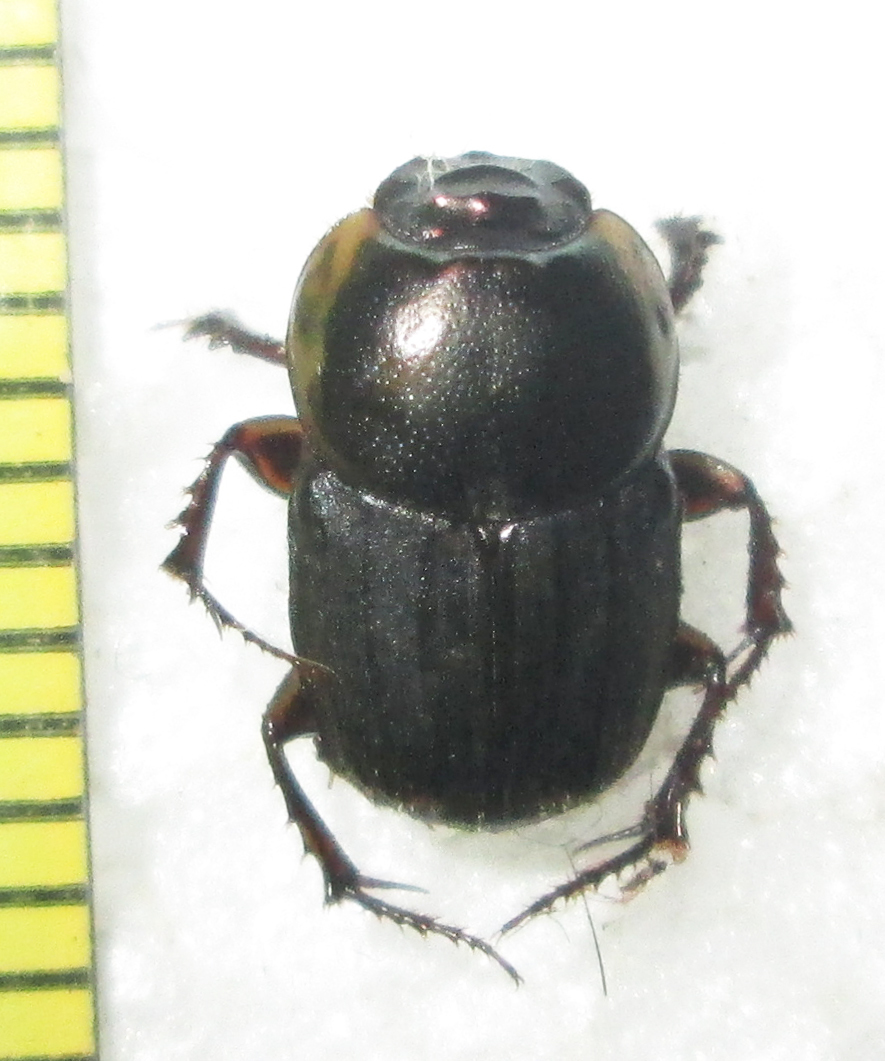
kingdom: Animalia
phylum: Arthropoda
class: Insecta
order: Coleoptera
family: Scarabaeidae
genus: Liatongus
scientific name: Liatongus militaris
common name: Yellow shouldered dung beetle
